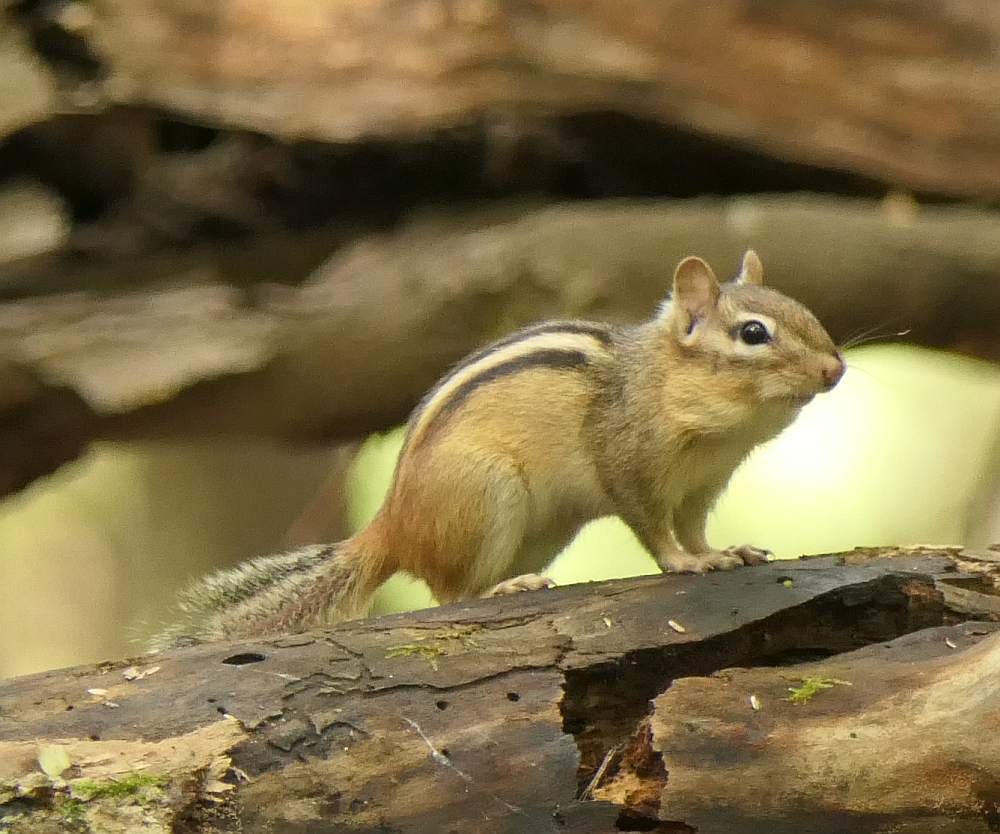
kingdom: Animalia
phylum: Chordata
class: Mammalia
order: Rodentia
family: Sciuridae
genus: Tamias
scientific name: Tamias striatus
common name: Eastern chipmunk
